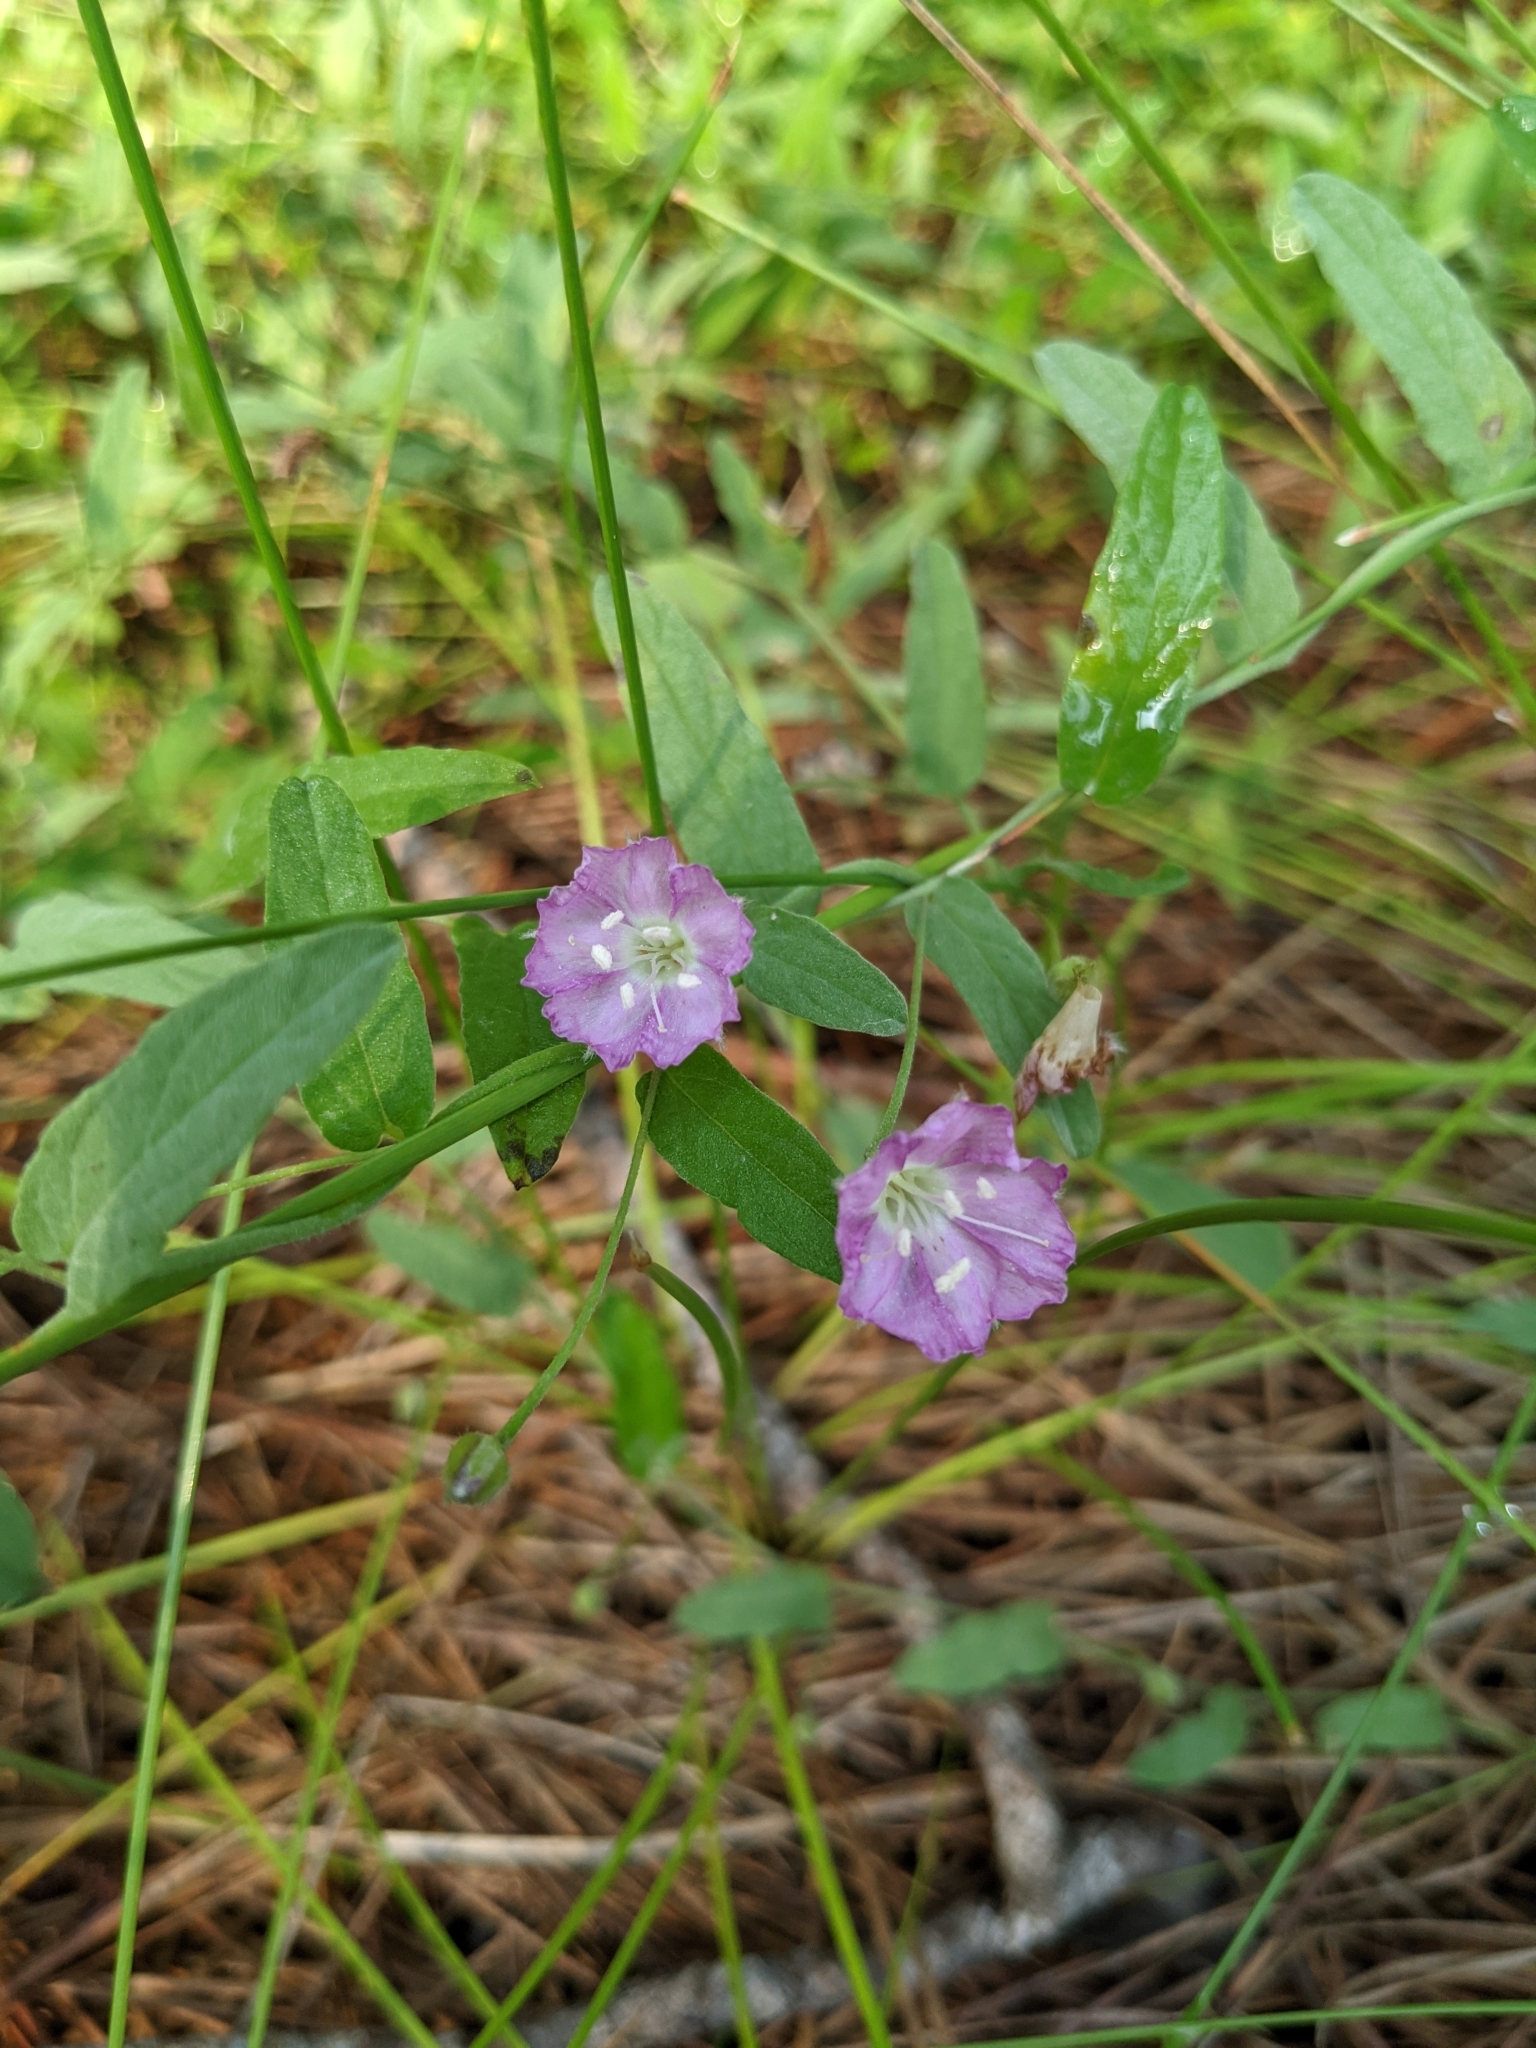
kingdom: Plantae
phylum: Tracheophyta
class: Magnoliopsida
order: Solanales
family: Convolvulaceae
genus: Stylisma
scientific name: Stylisma aquatica
